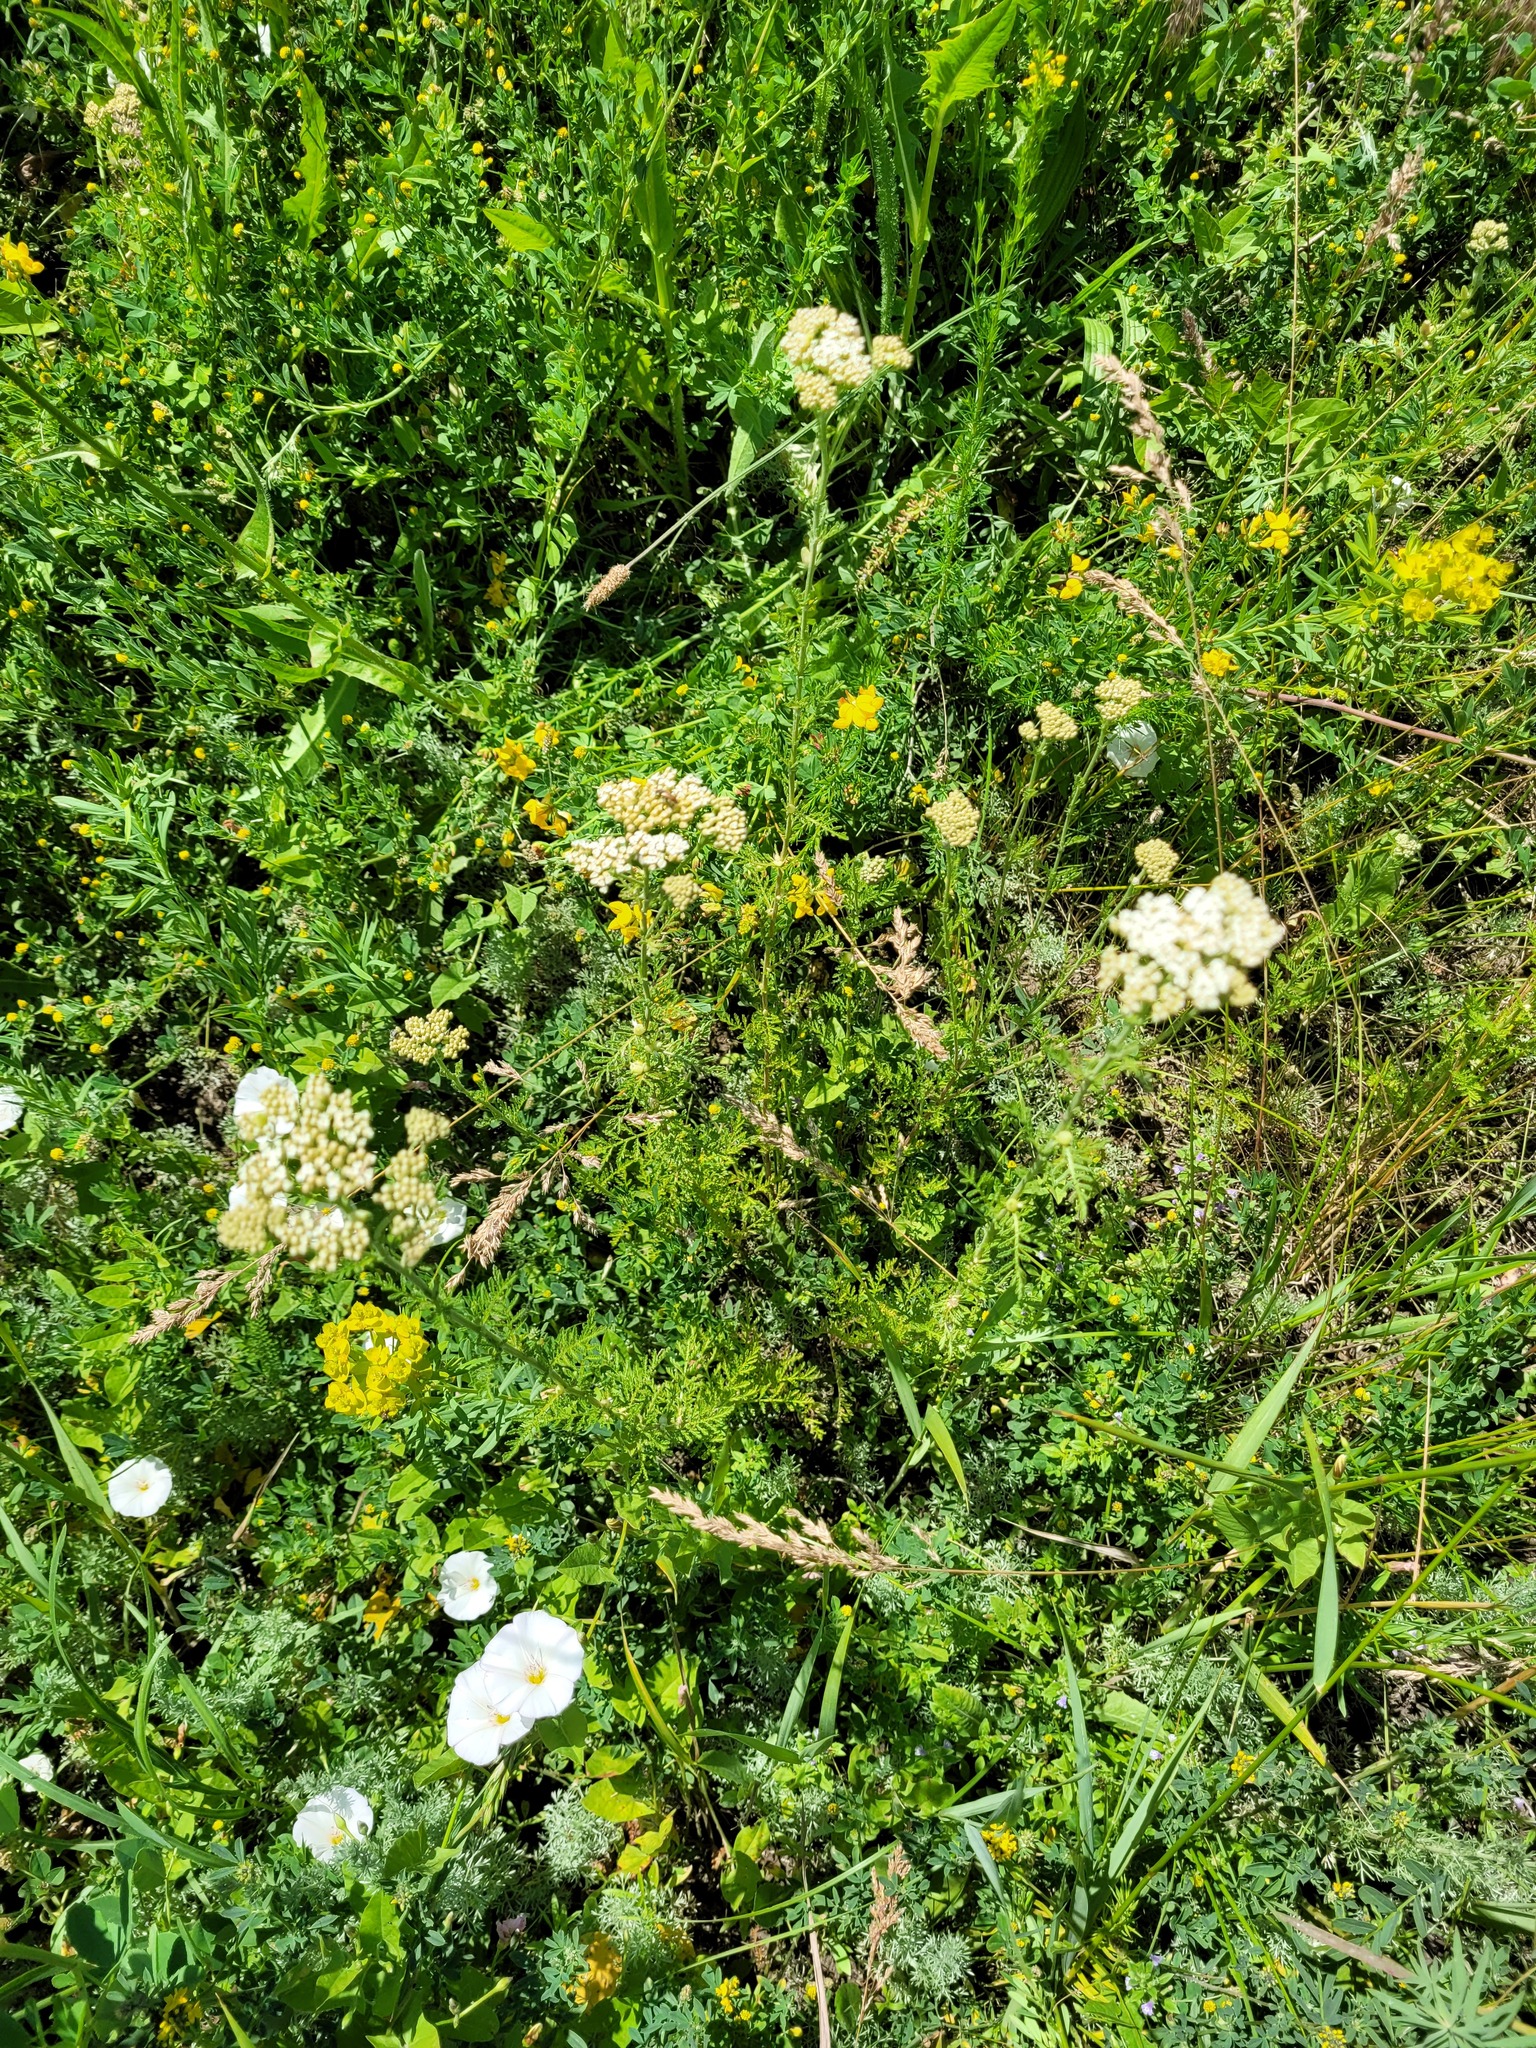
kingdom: Plantae
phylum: Tracheophyta
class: Magnoliopsida
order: Asterales
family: Asteraceae
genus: Achillea
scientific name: Achillea nobilis
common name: Noble yarrow
